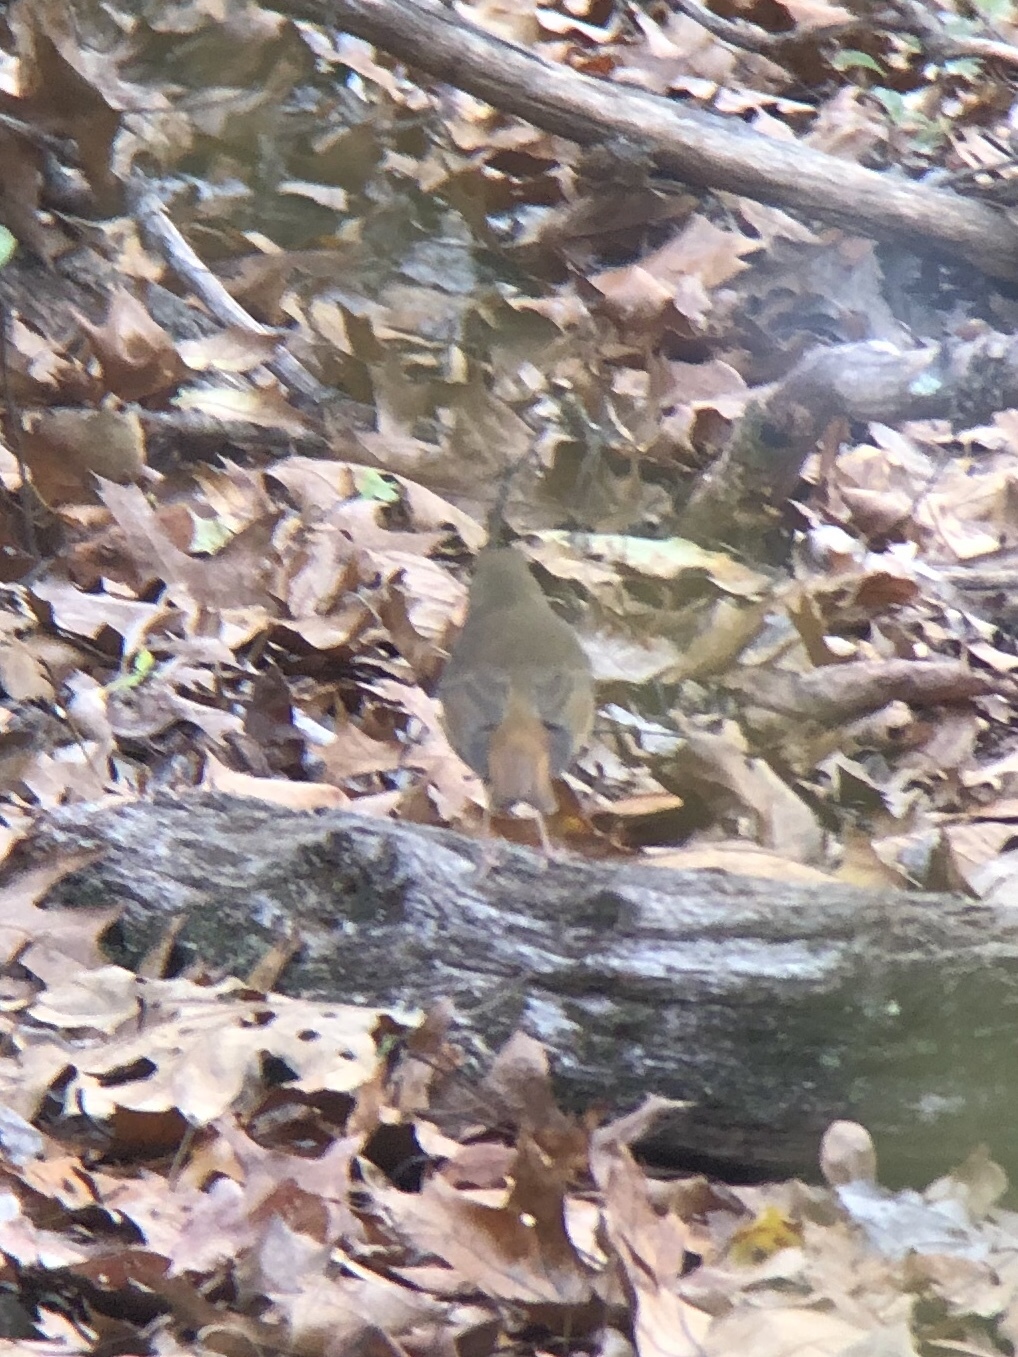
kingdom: Animalia
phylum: Chordata
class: Aves
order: Passeriformes
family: Turdidae
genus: Catharus
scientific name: Catharus guttatus
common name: Hermit thrush
